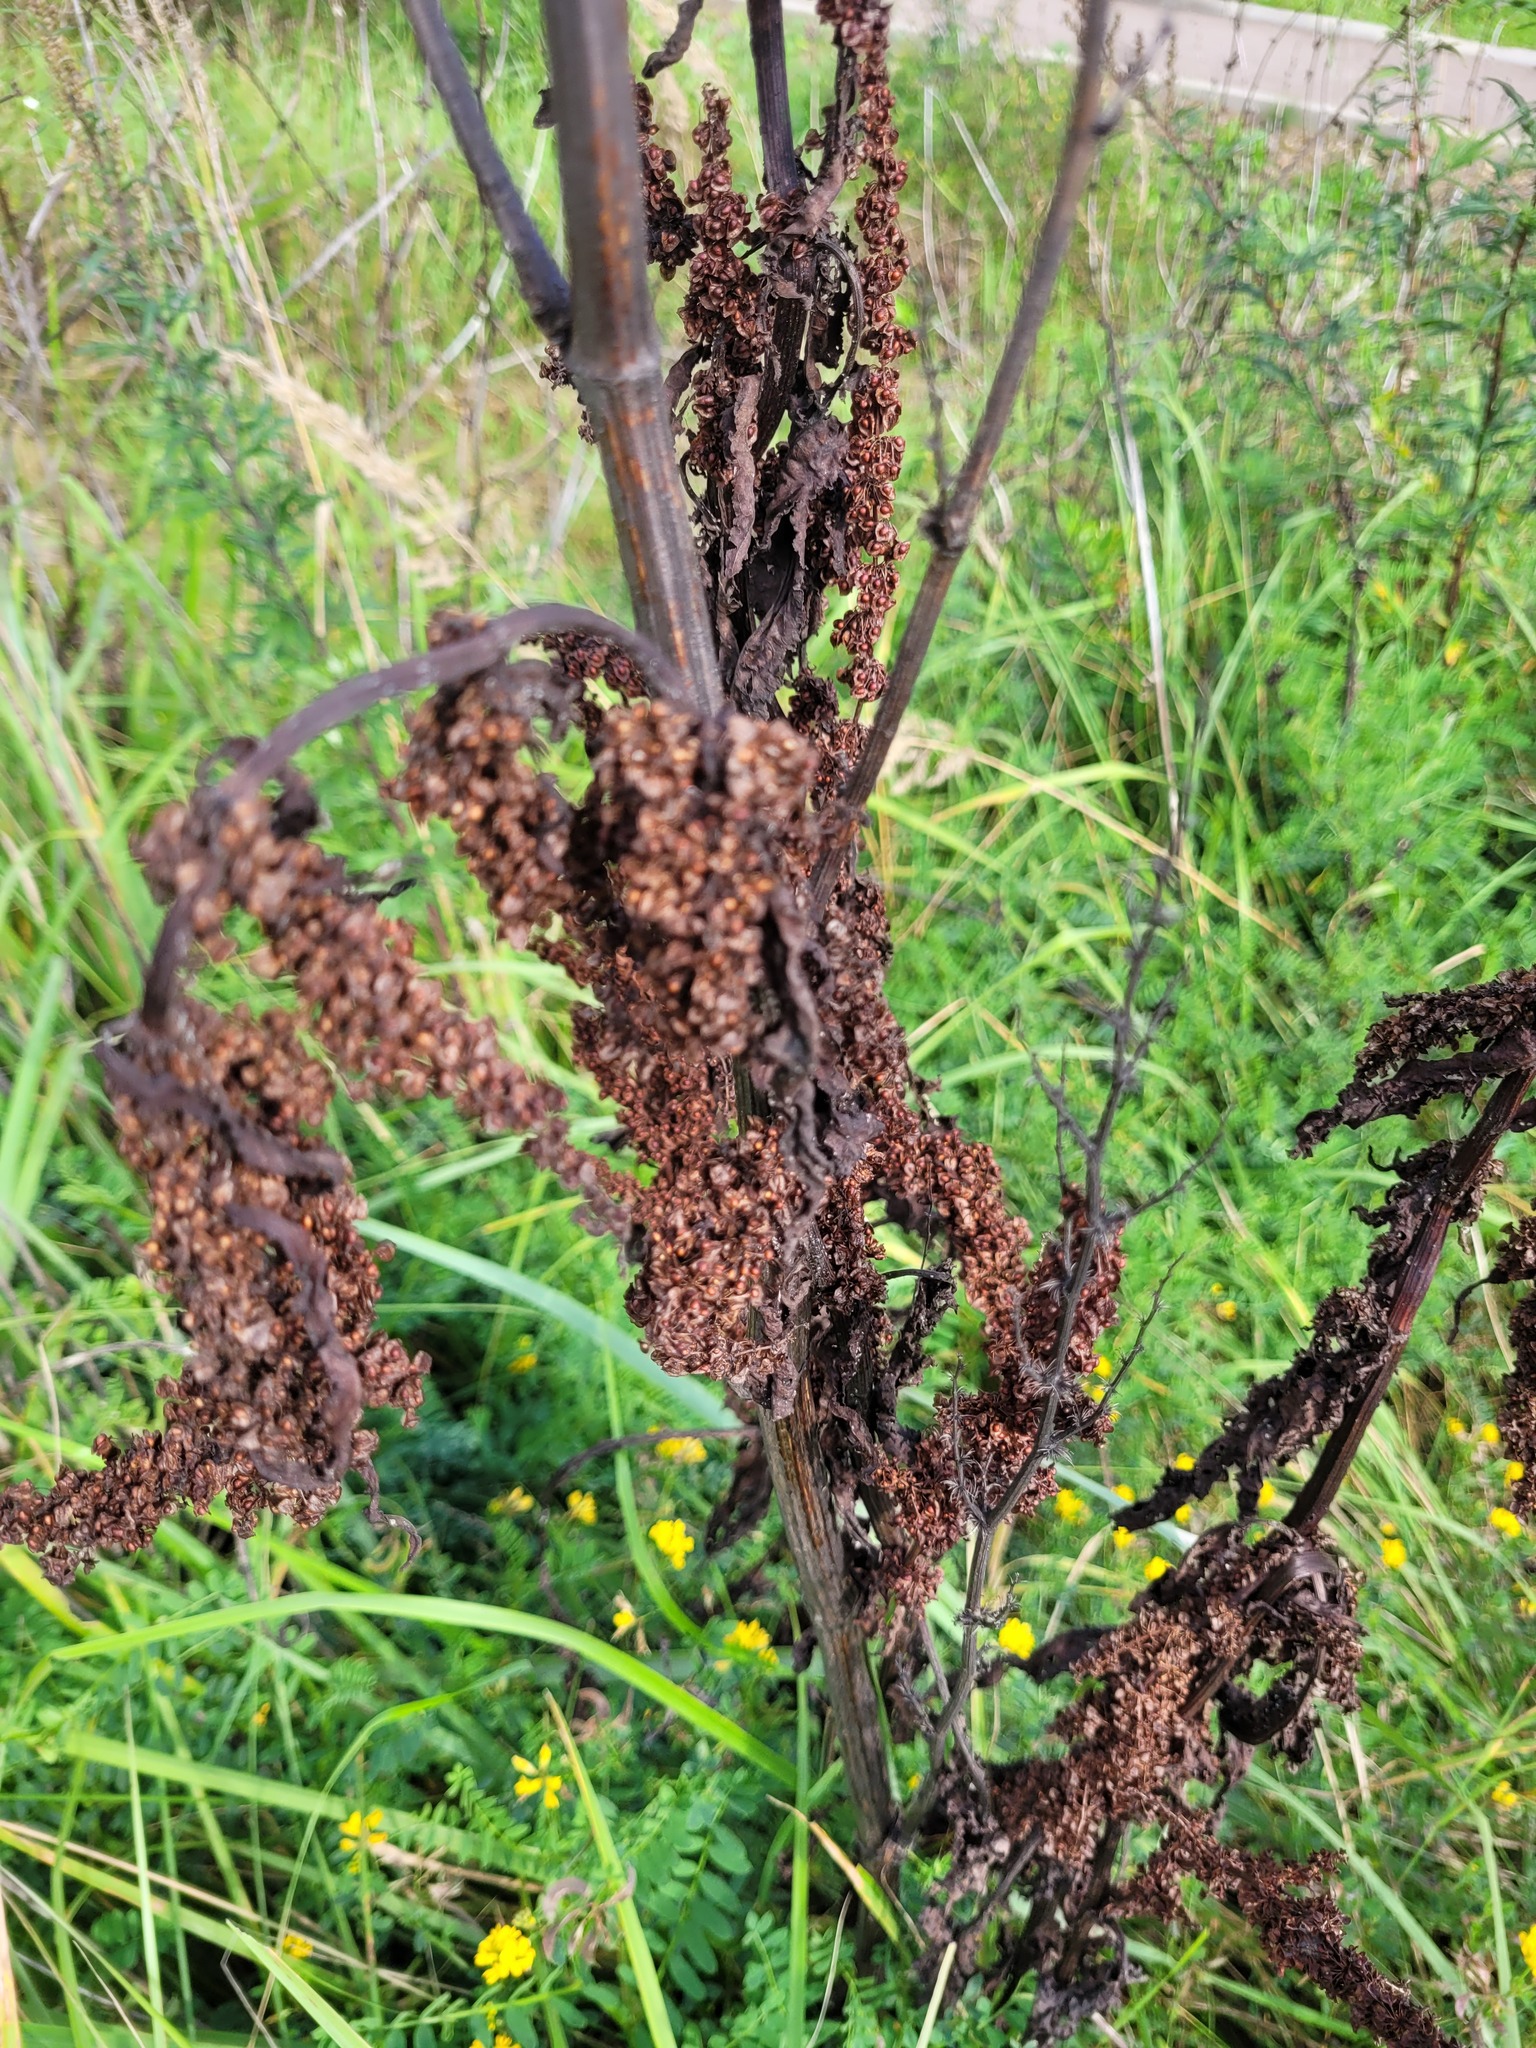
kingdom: Plantae
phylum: Tracheophyta
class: Magnoliopsida
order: Caryophyllales
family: Polygonaceae
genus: Rumex
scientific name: Rumex crispus
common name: Curled dock
